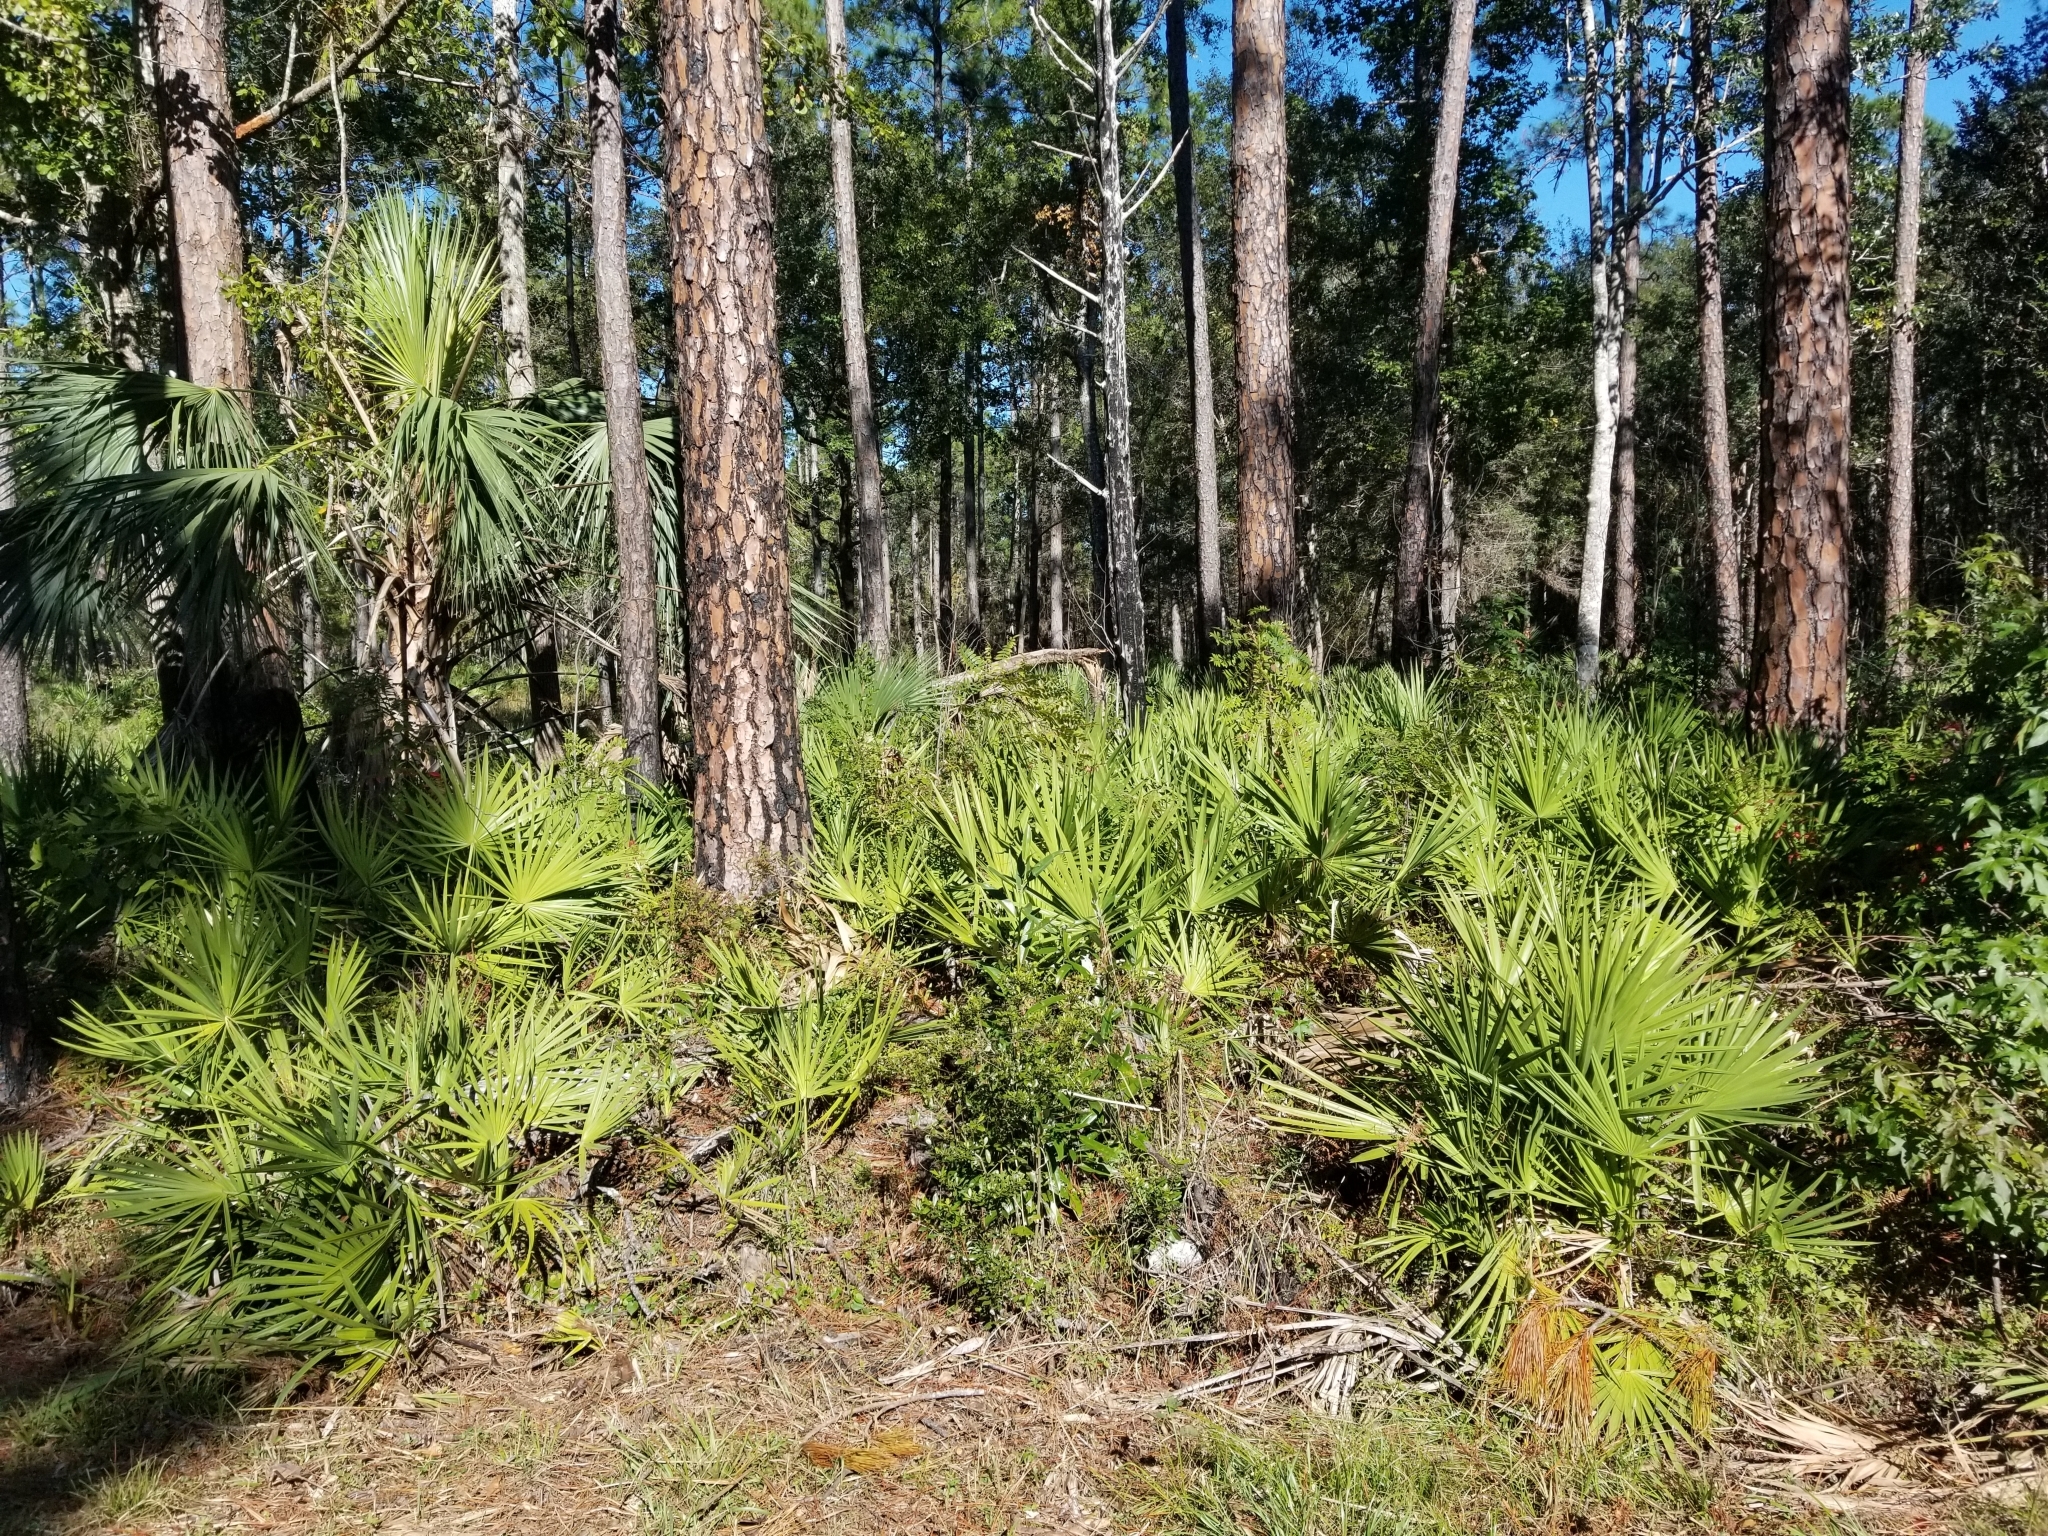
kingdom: Plantae
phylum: Tracheophyta
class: Liliopsida
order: Arecales
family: Arecaceae
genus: Serenoa
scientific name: Serenoa repens
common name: Saw-palmetto
